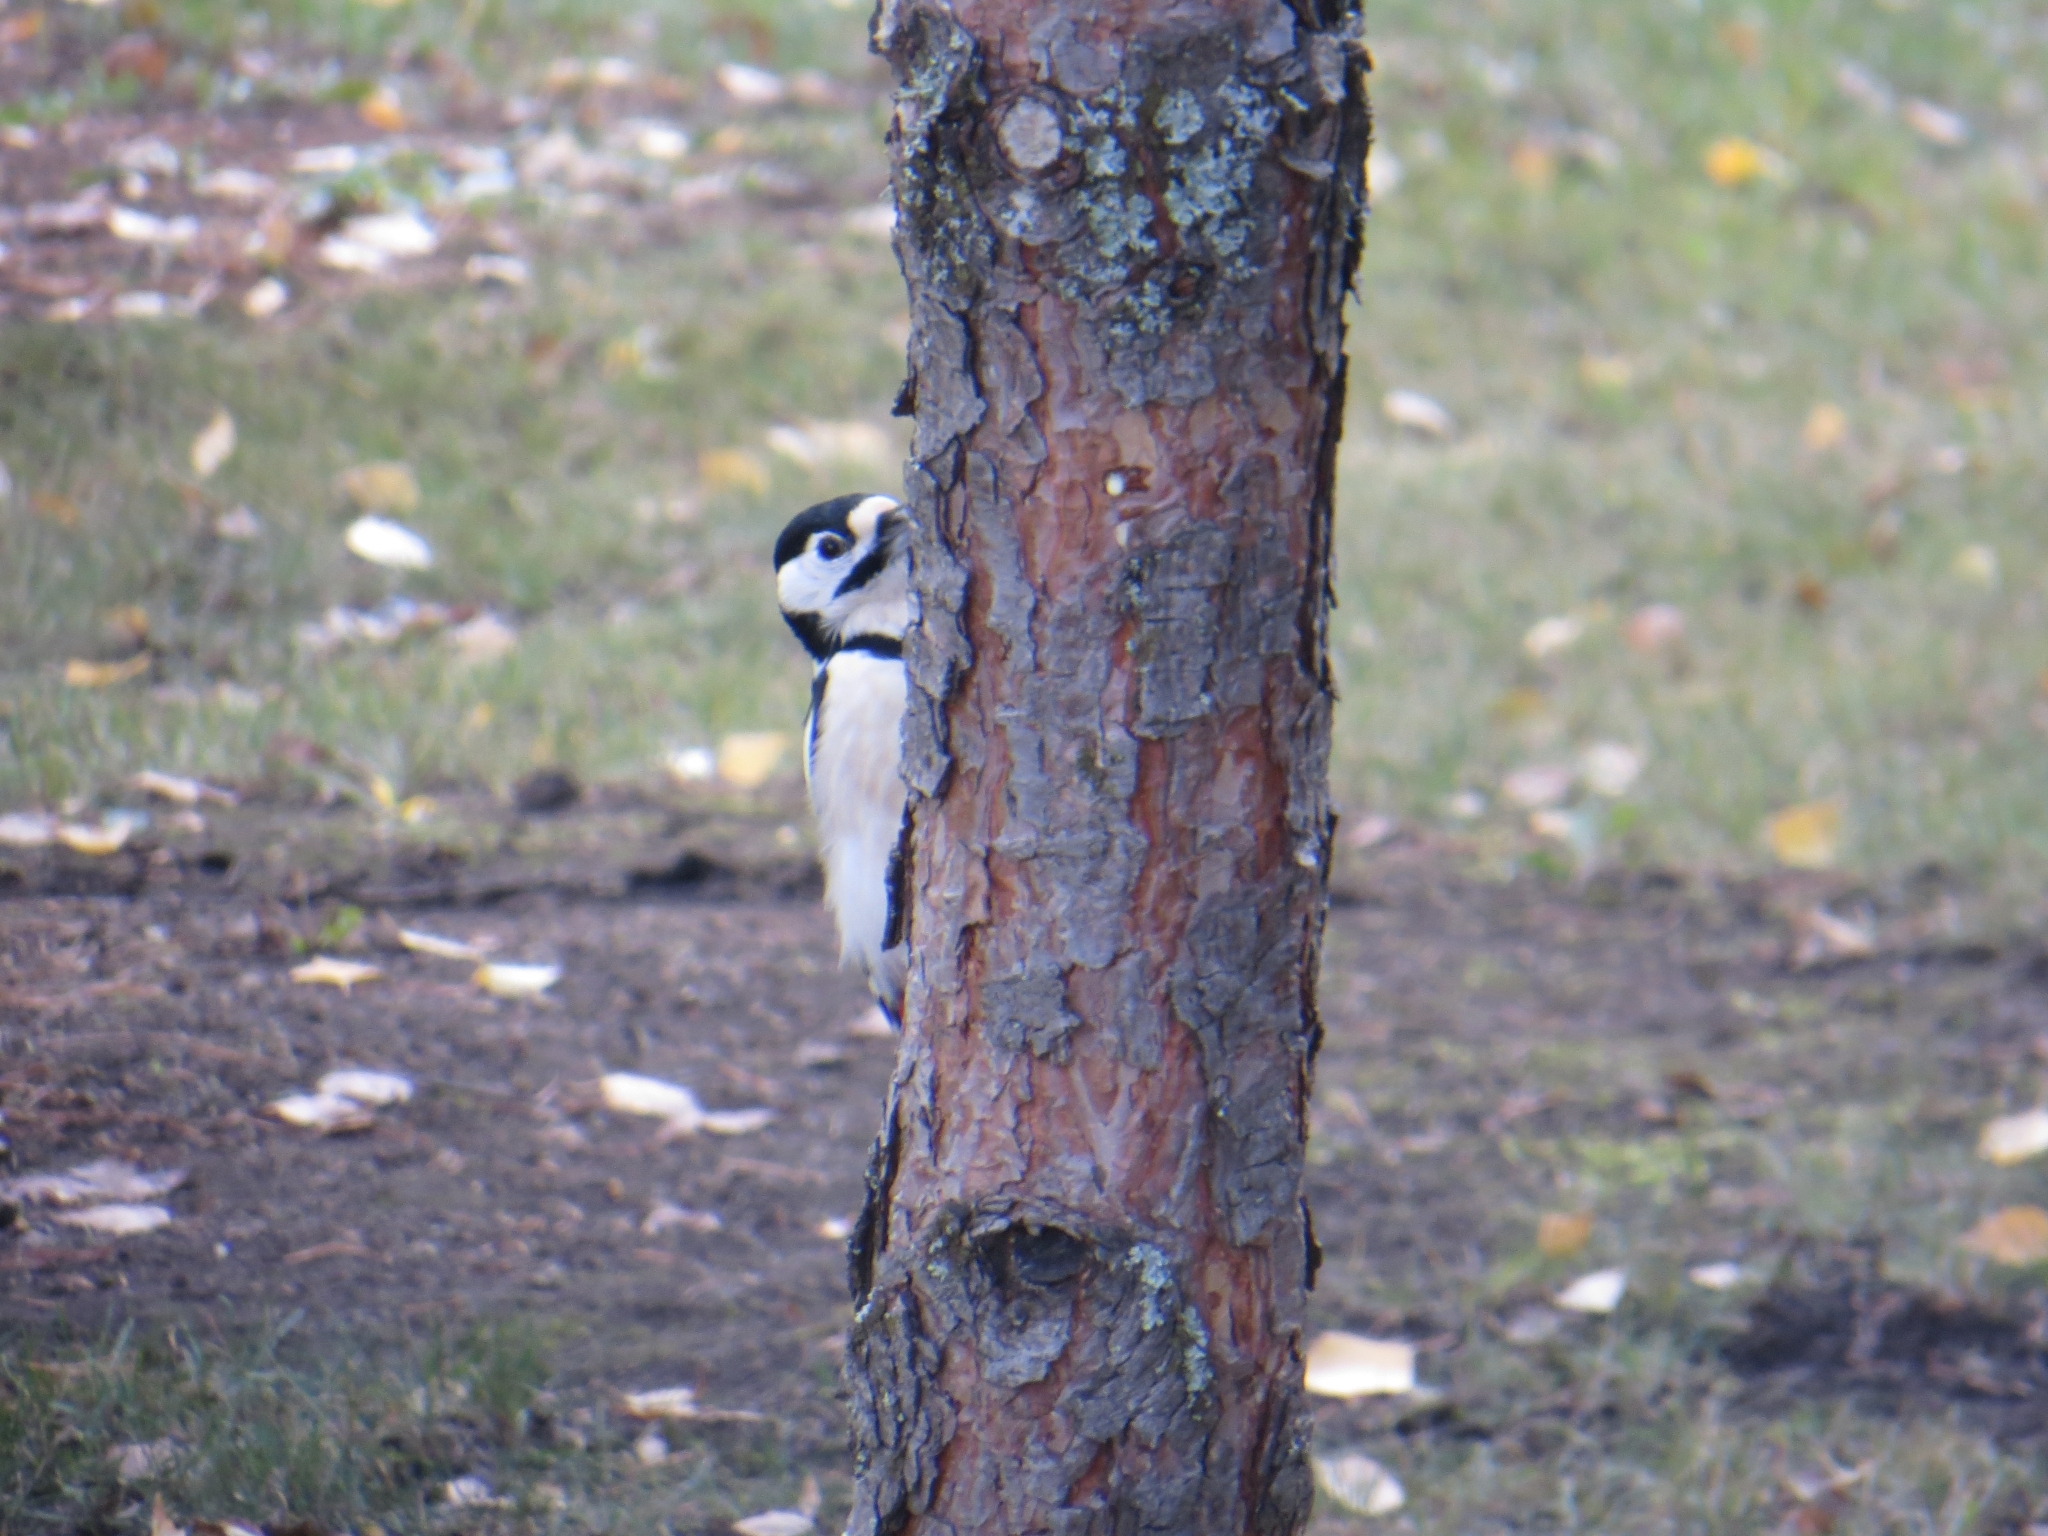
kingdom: Animalia
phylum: Chordata
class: Aves
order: Piciformes
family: Picidae
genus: Dendrocopos
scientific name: Dendrocopos major
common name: Great spotted woodpecker
